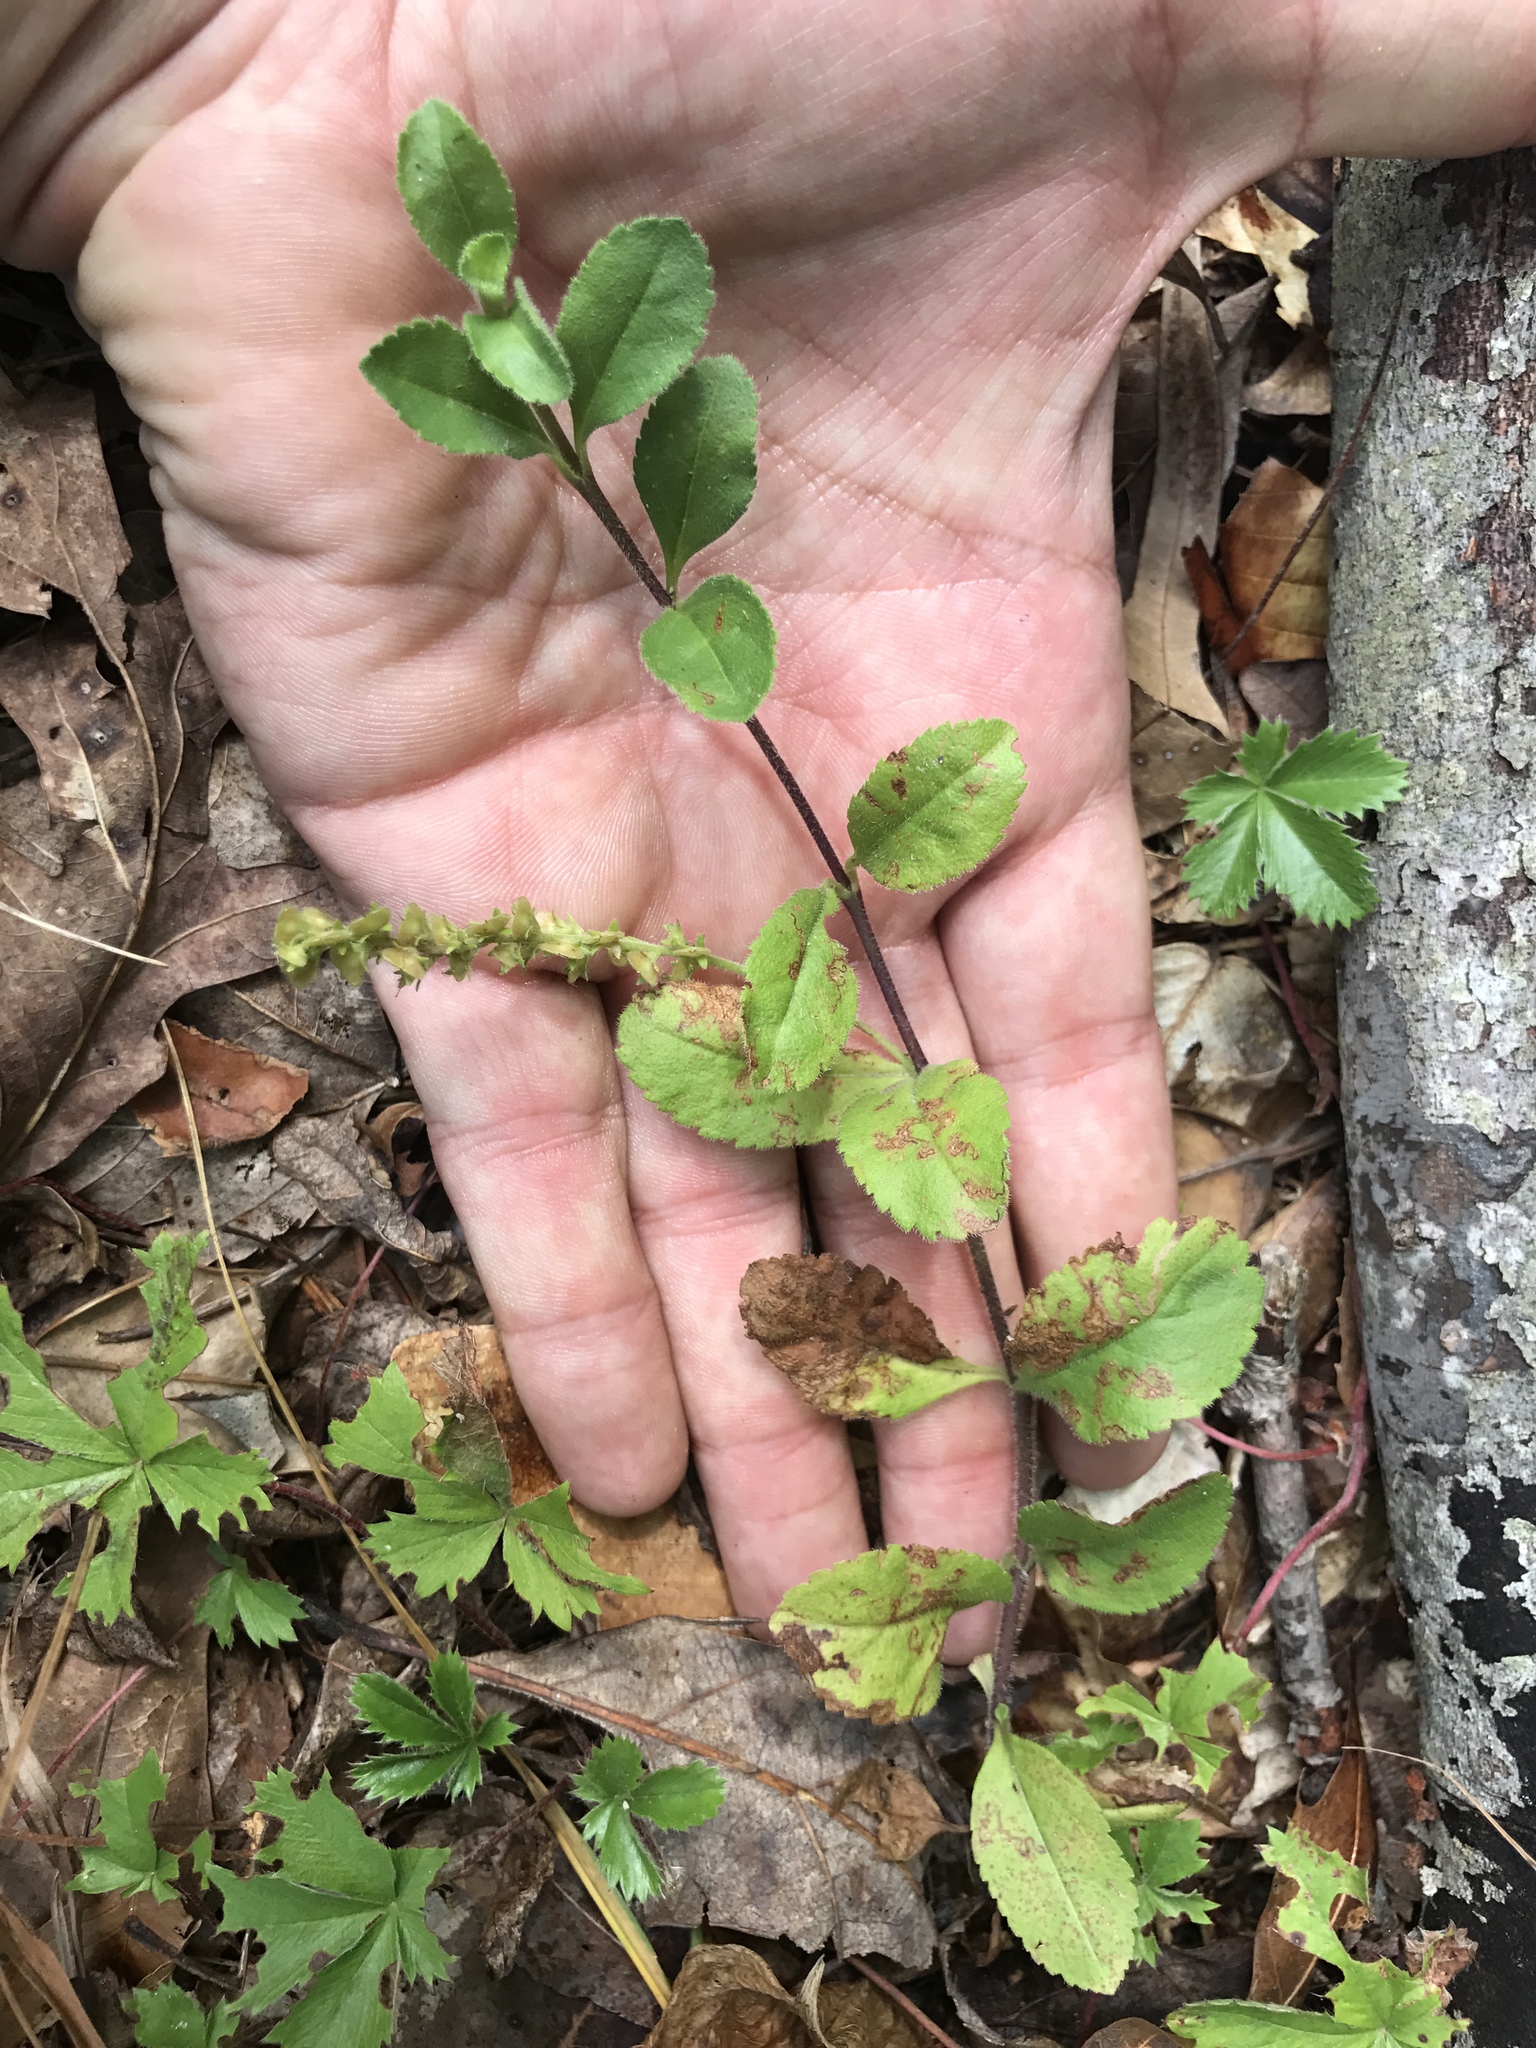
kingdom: Plantae
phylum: Tracheophyta
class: Magnoliopsida
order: Lamiales
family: Plantaginaceae
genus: Veronica
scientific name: Veronica officinalis
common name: Common speedwell
